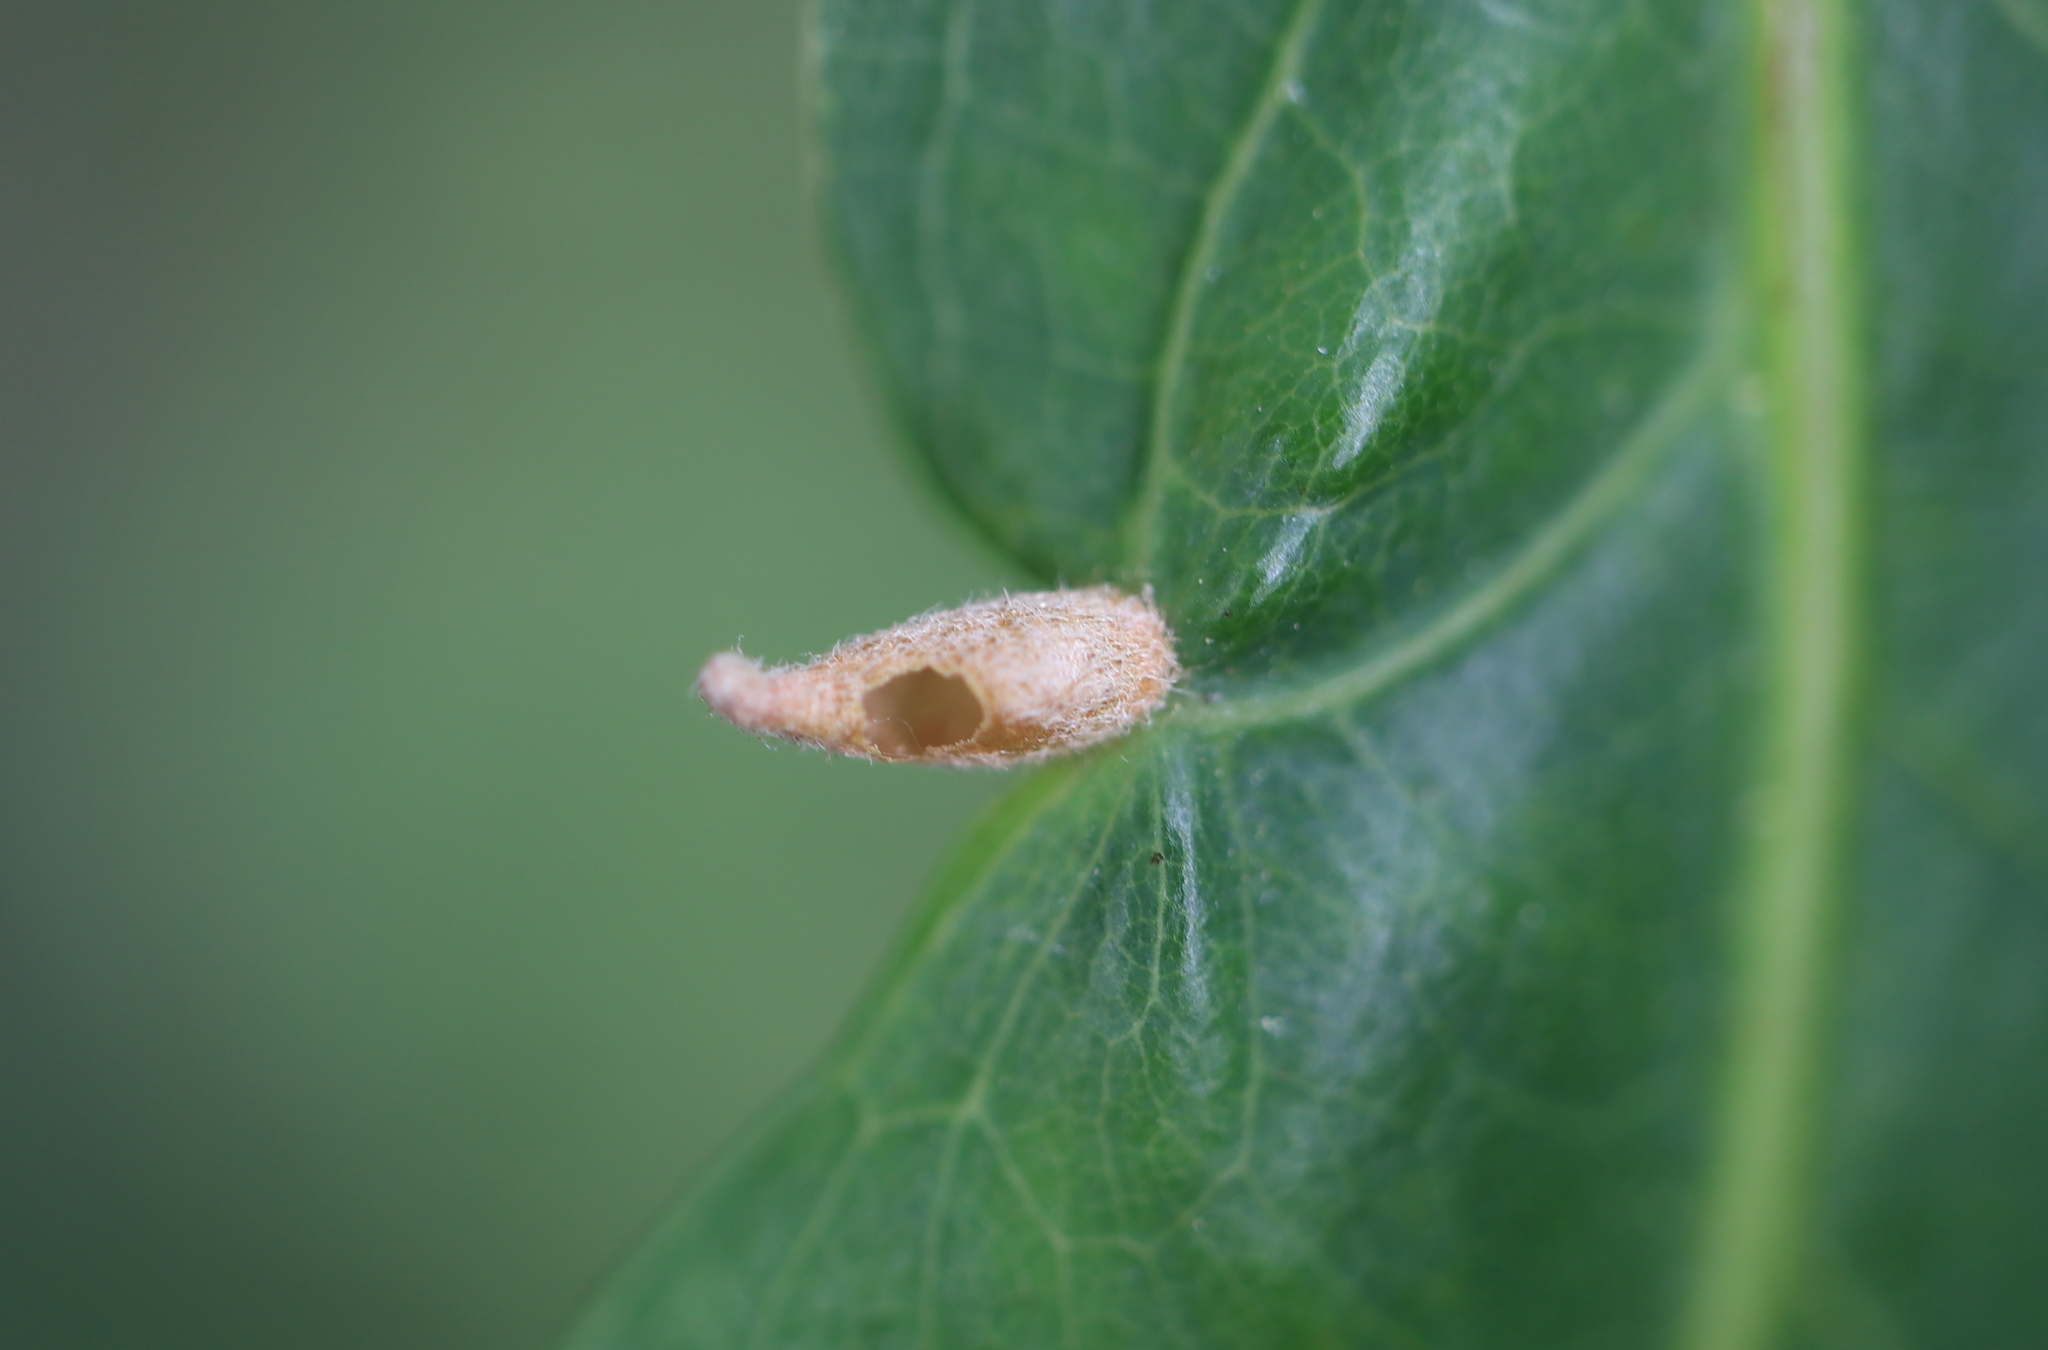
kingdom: Animalia
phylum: Arthropoda
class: Insecta
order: Hymenoptera
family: Cynipidae
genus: Andricus
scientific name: Andricus
